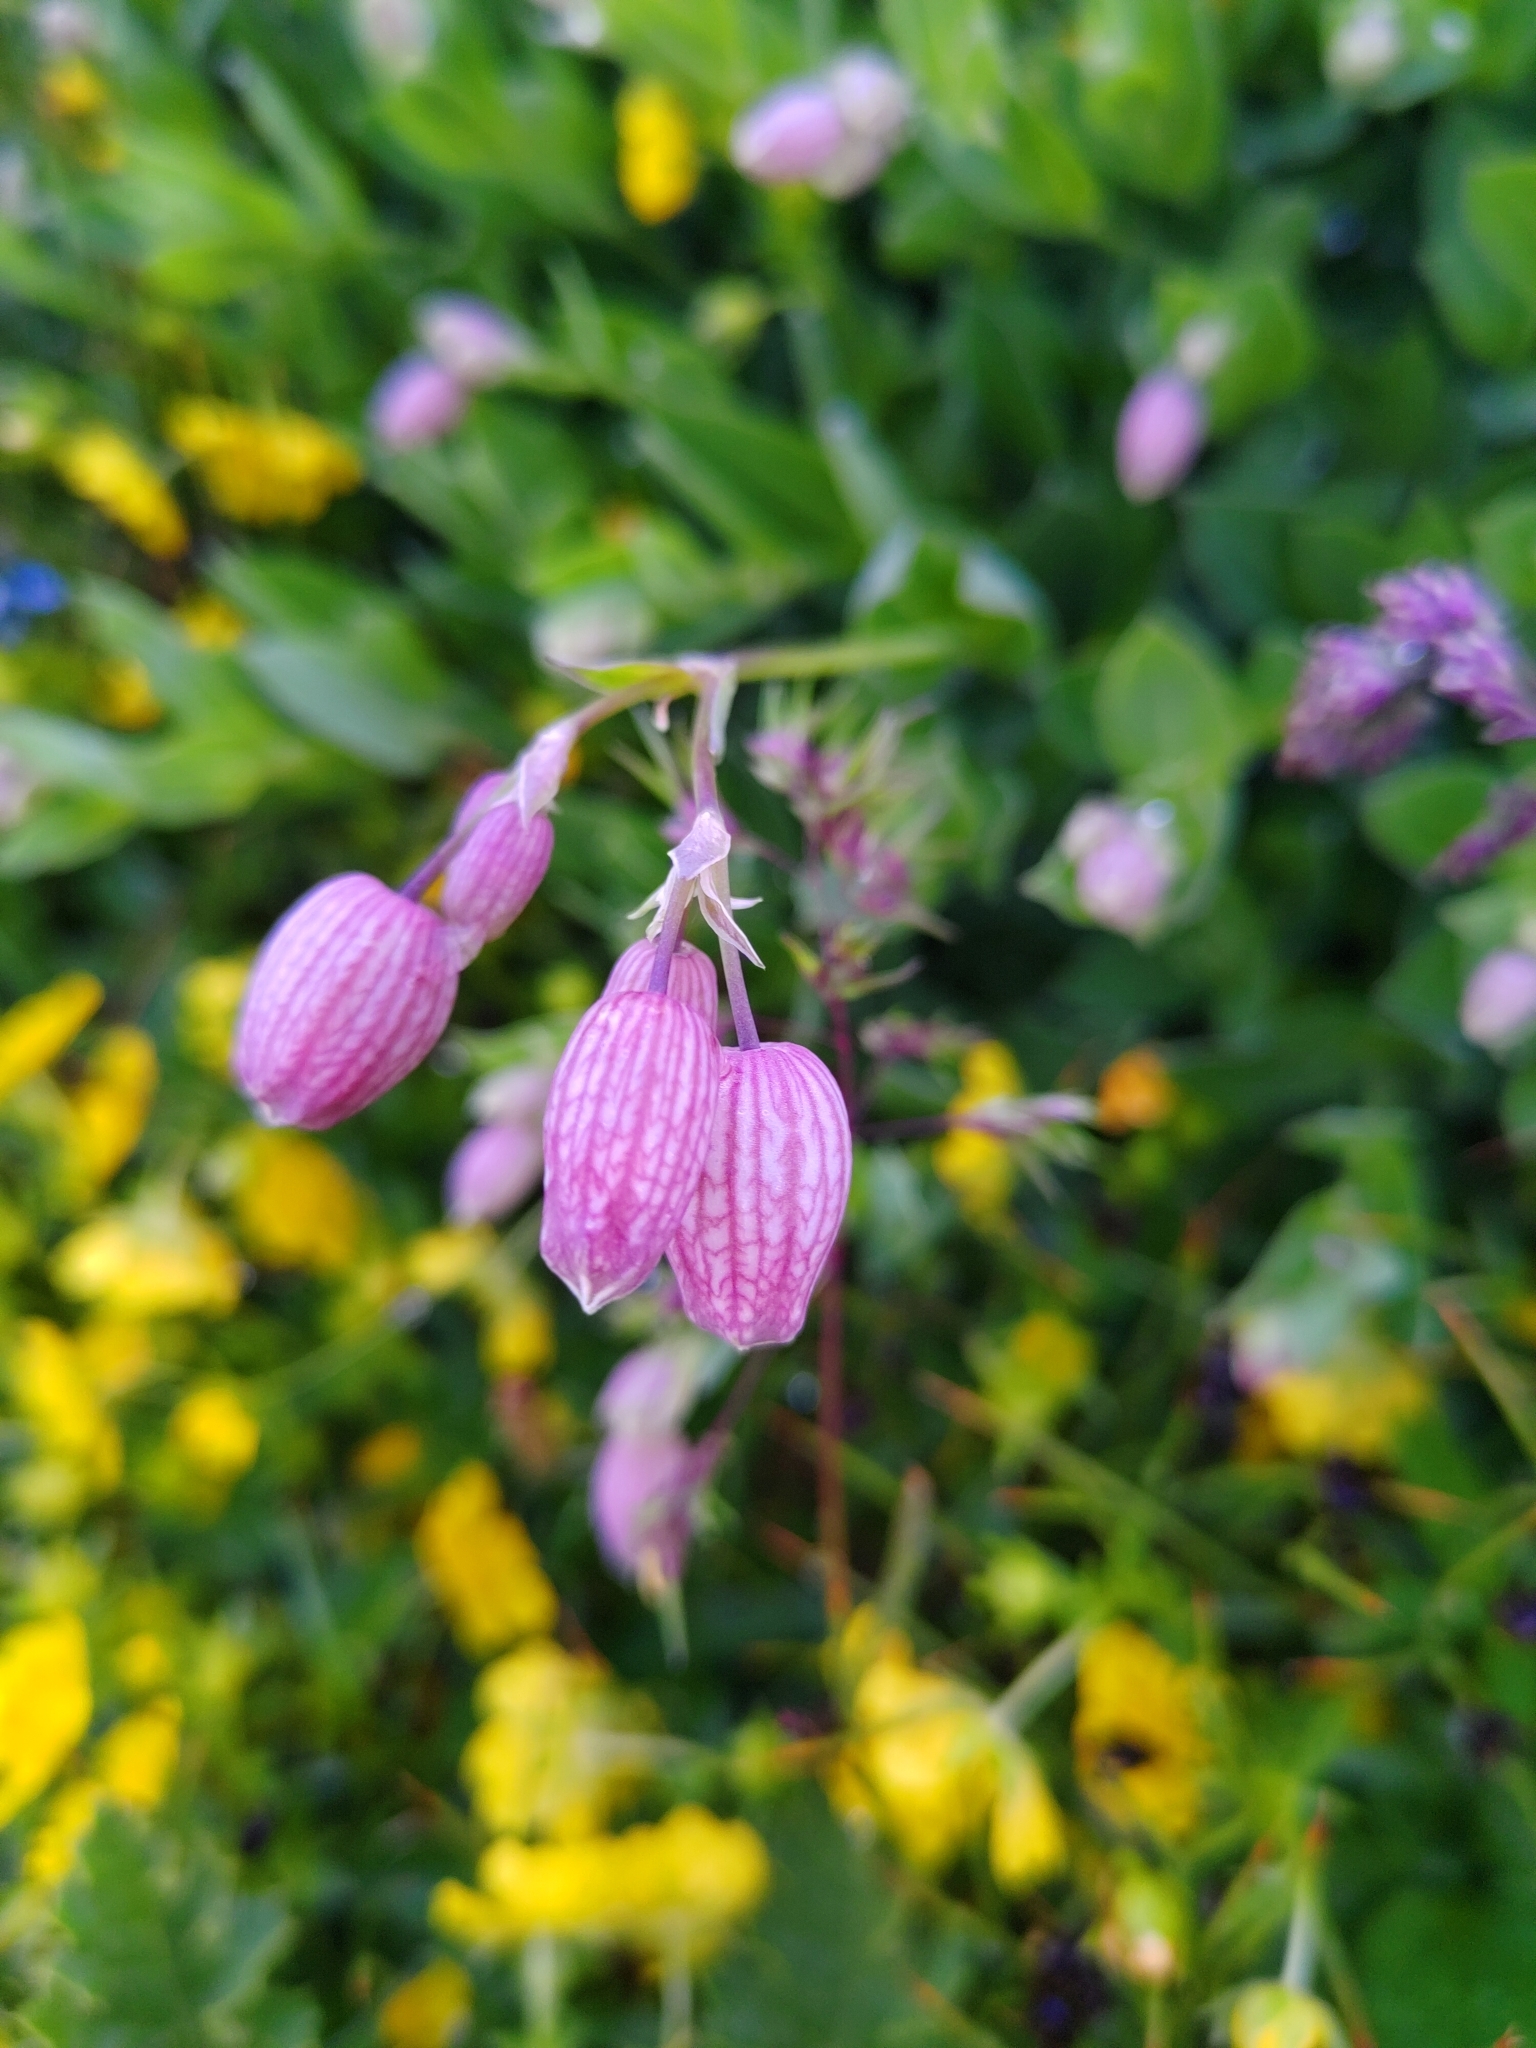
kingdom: Plantae
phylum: Tracheophyta
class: Magnoliopsida
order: Caryophyllales
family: Caryophyllaceae
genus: Silene
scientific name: Silene vulgaris
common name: Bladder campion
